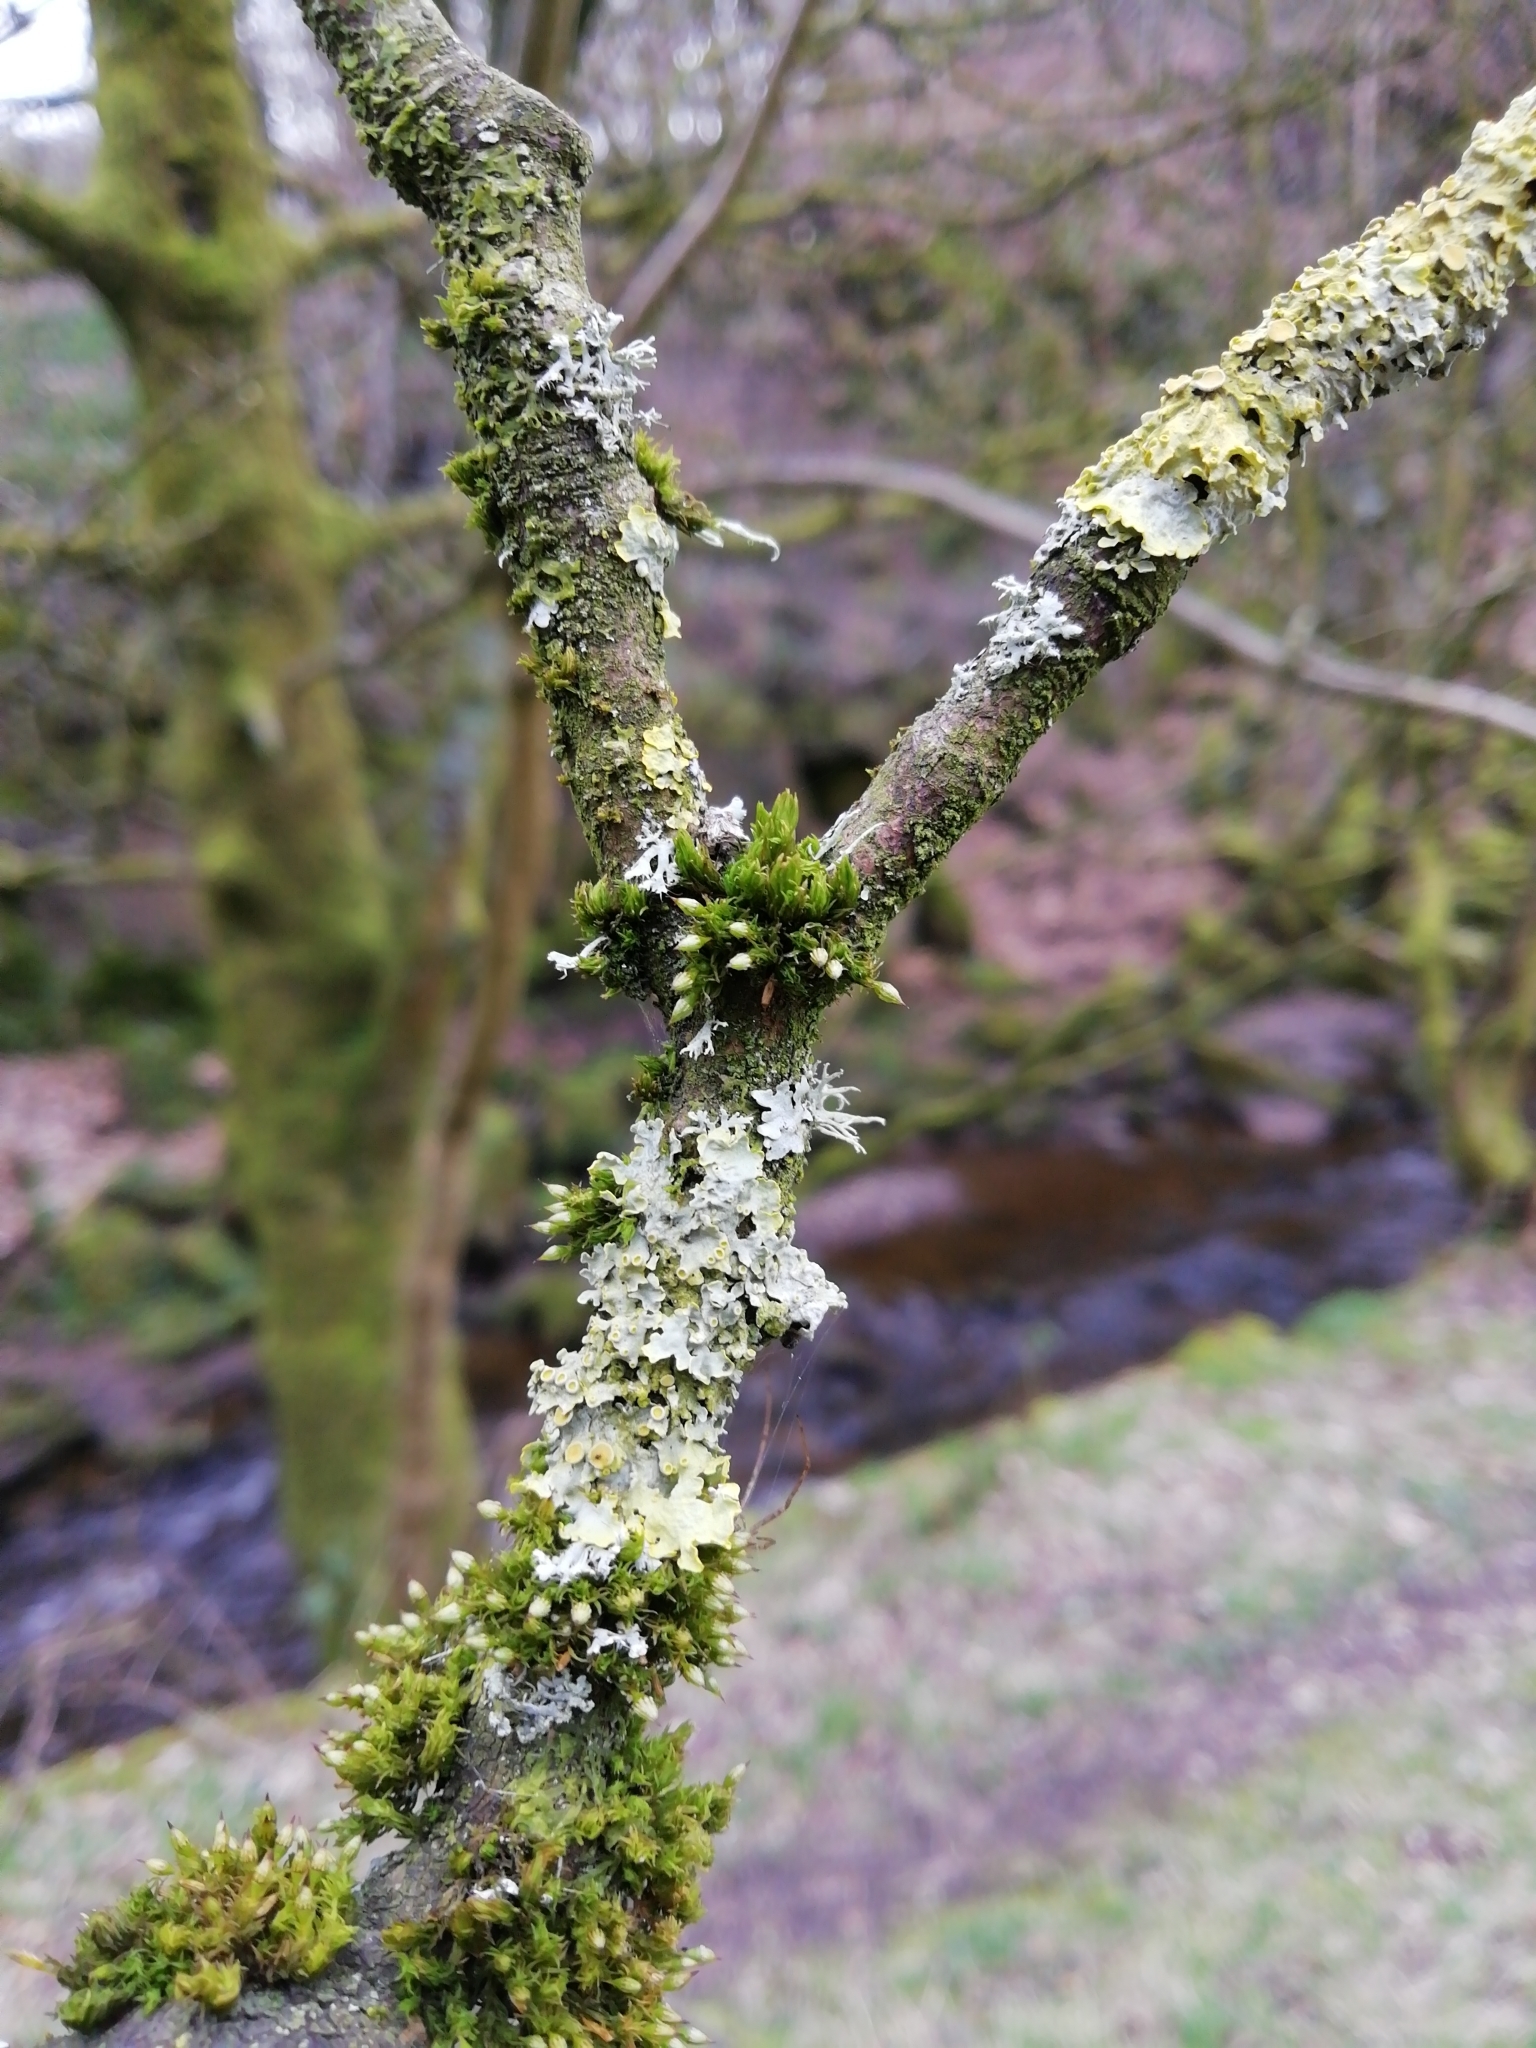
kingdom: Fungi
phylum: Ascomycota
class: Lecanoromycetes
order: Teloschistales
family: Teloschistaceae
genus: Xanthoria
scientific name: Xanthoria parietina
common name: Common orange lichen
